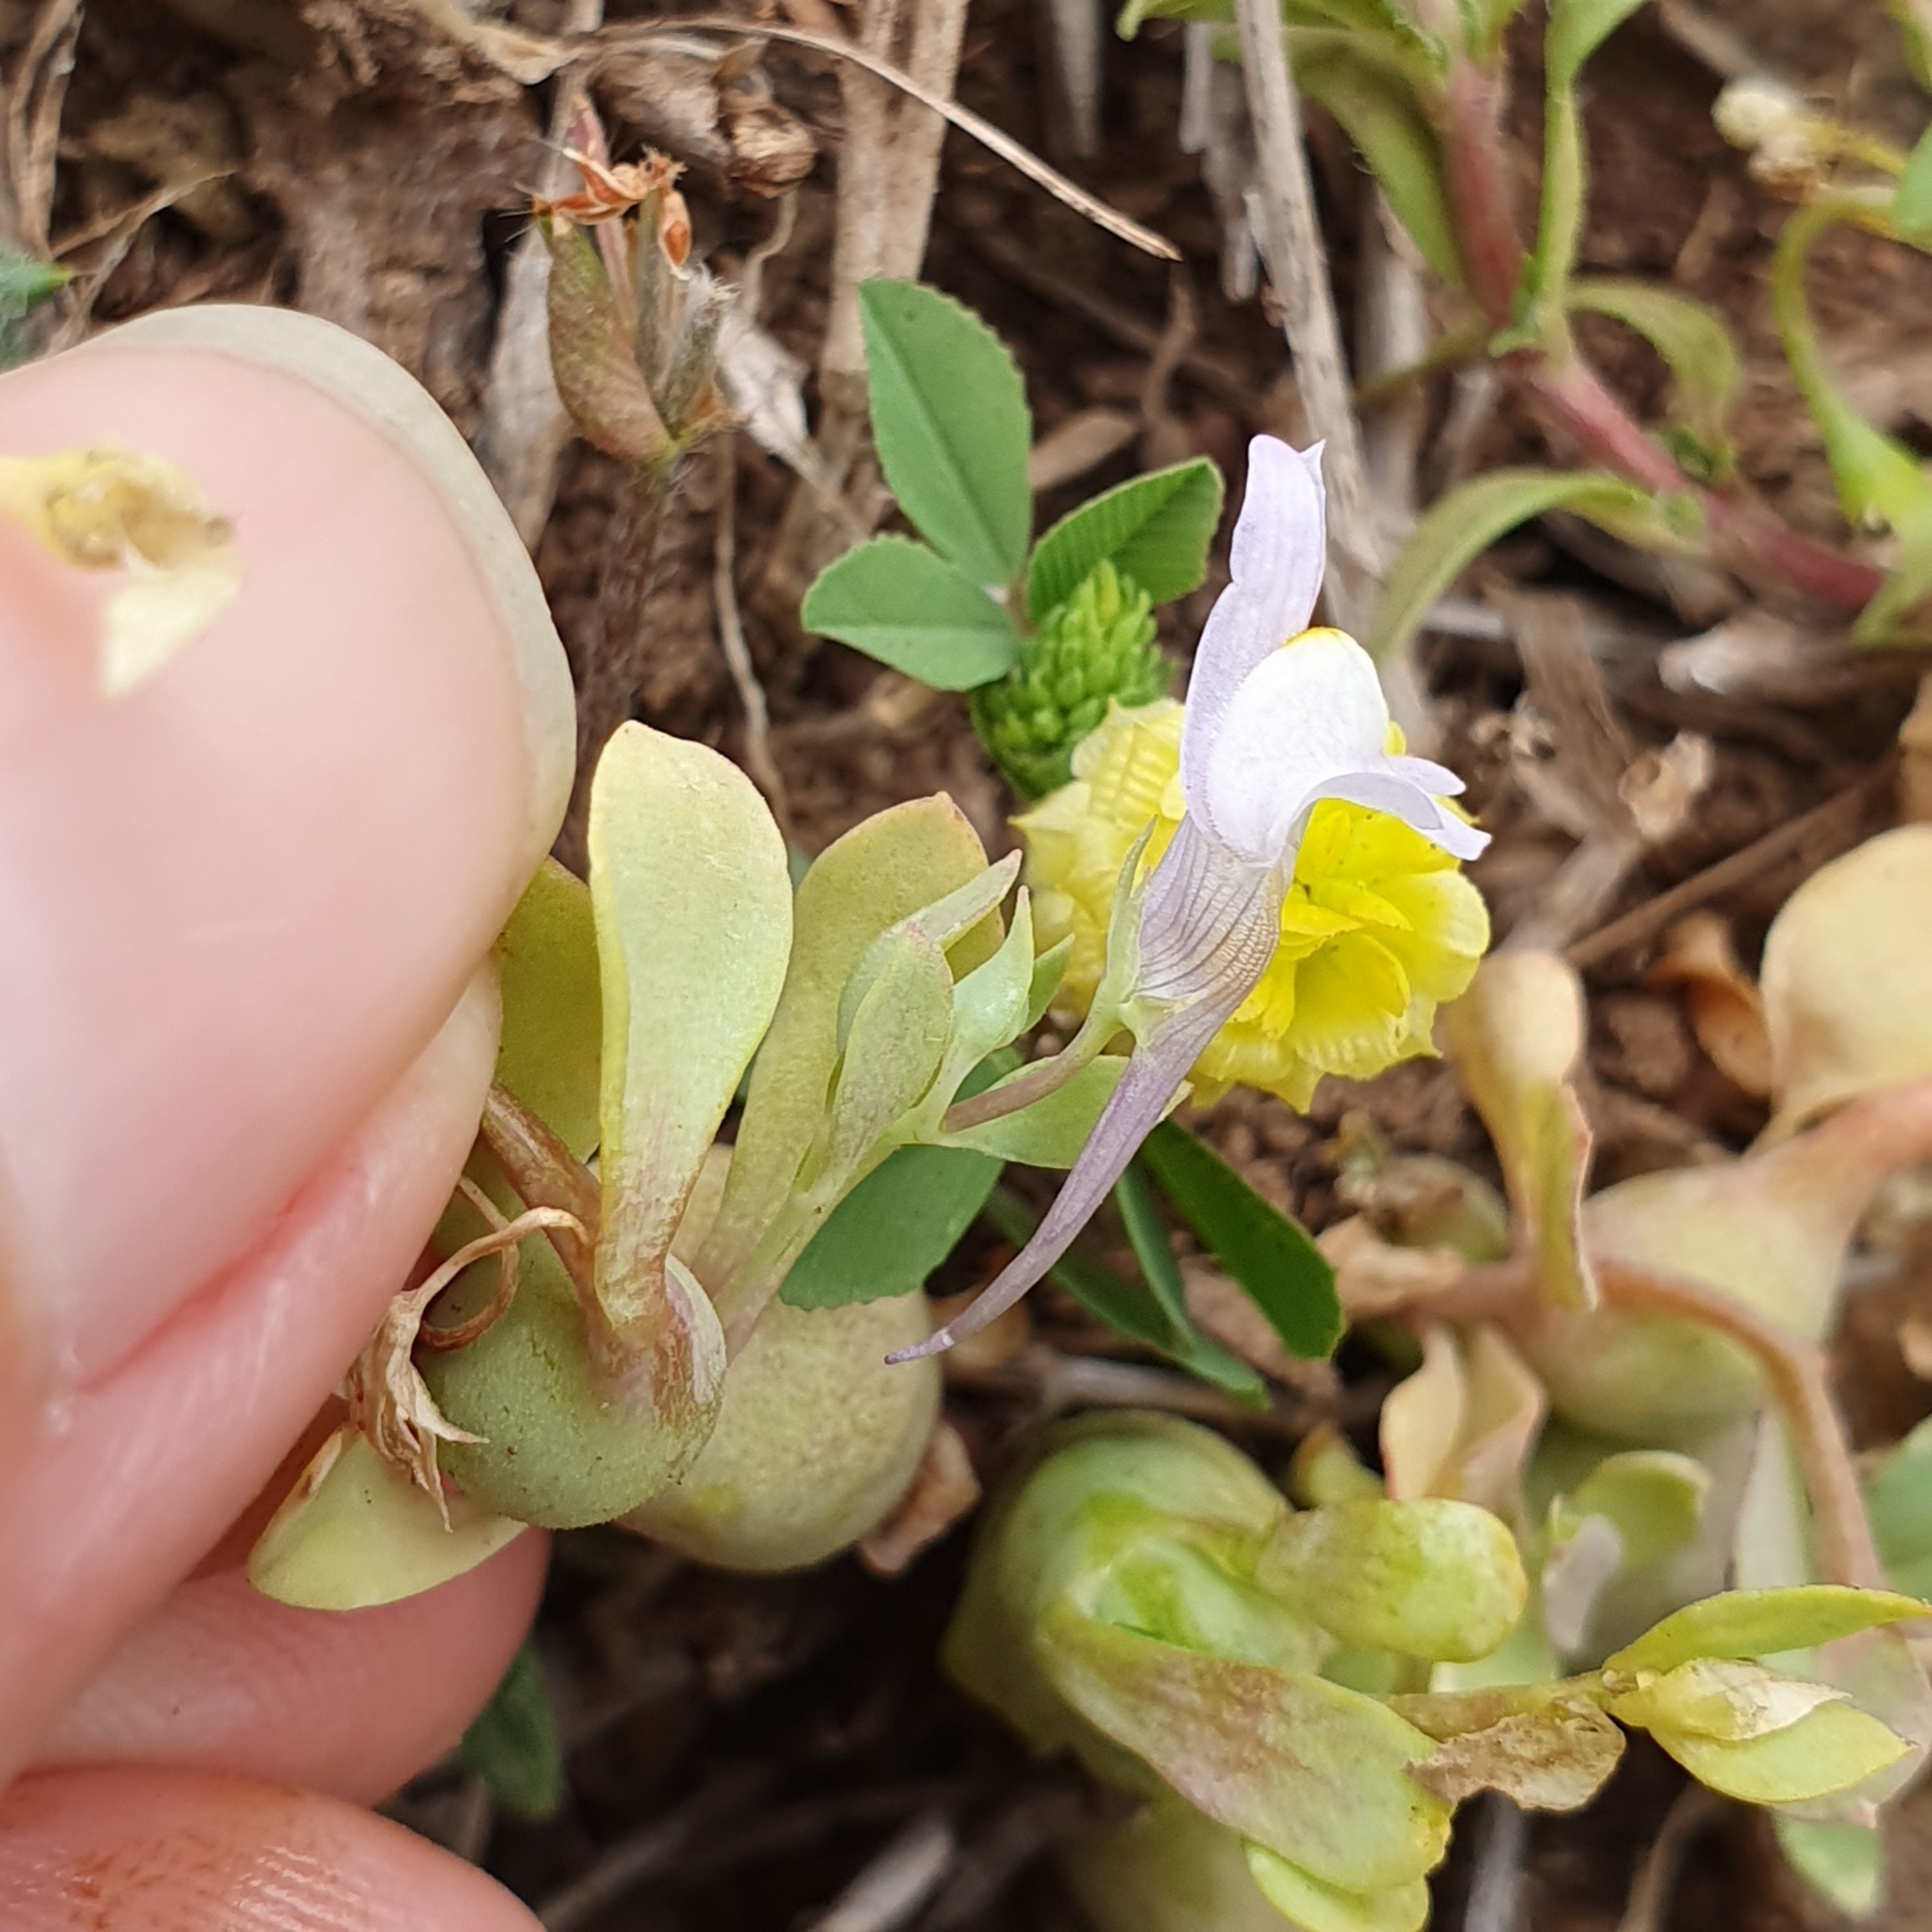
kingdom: Plantae
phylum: Tracheophyta
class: Magnoliopsida
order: Lamiales
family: Plantaginaceae
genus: Linaria
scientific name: Linaria reflexa
